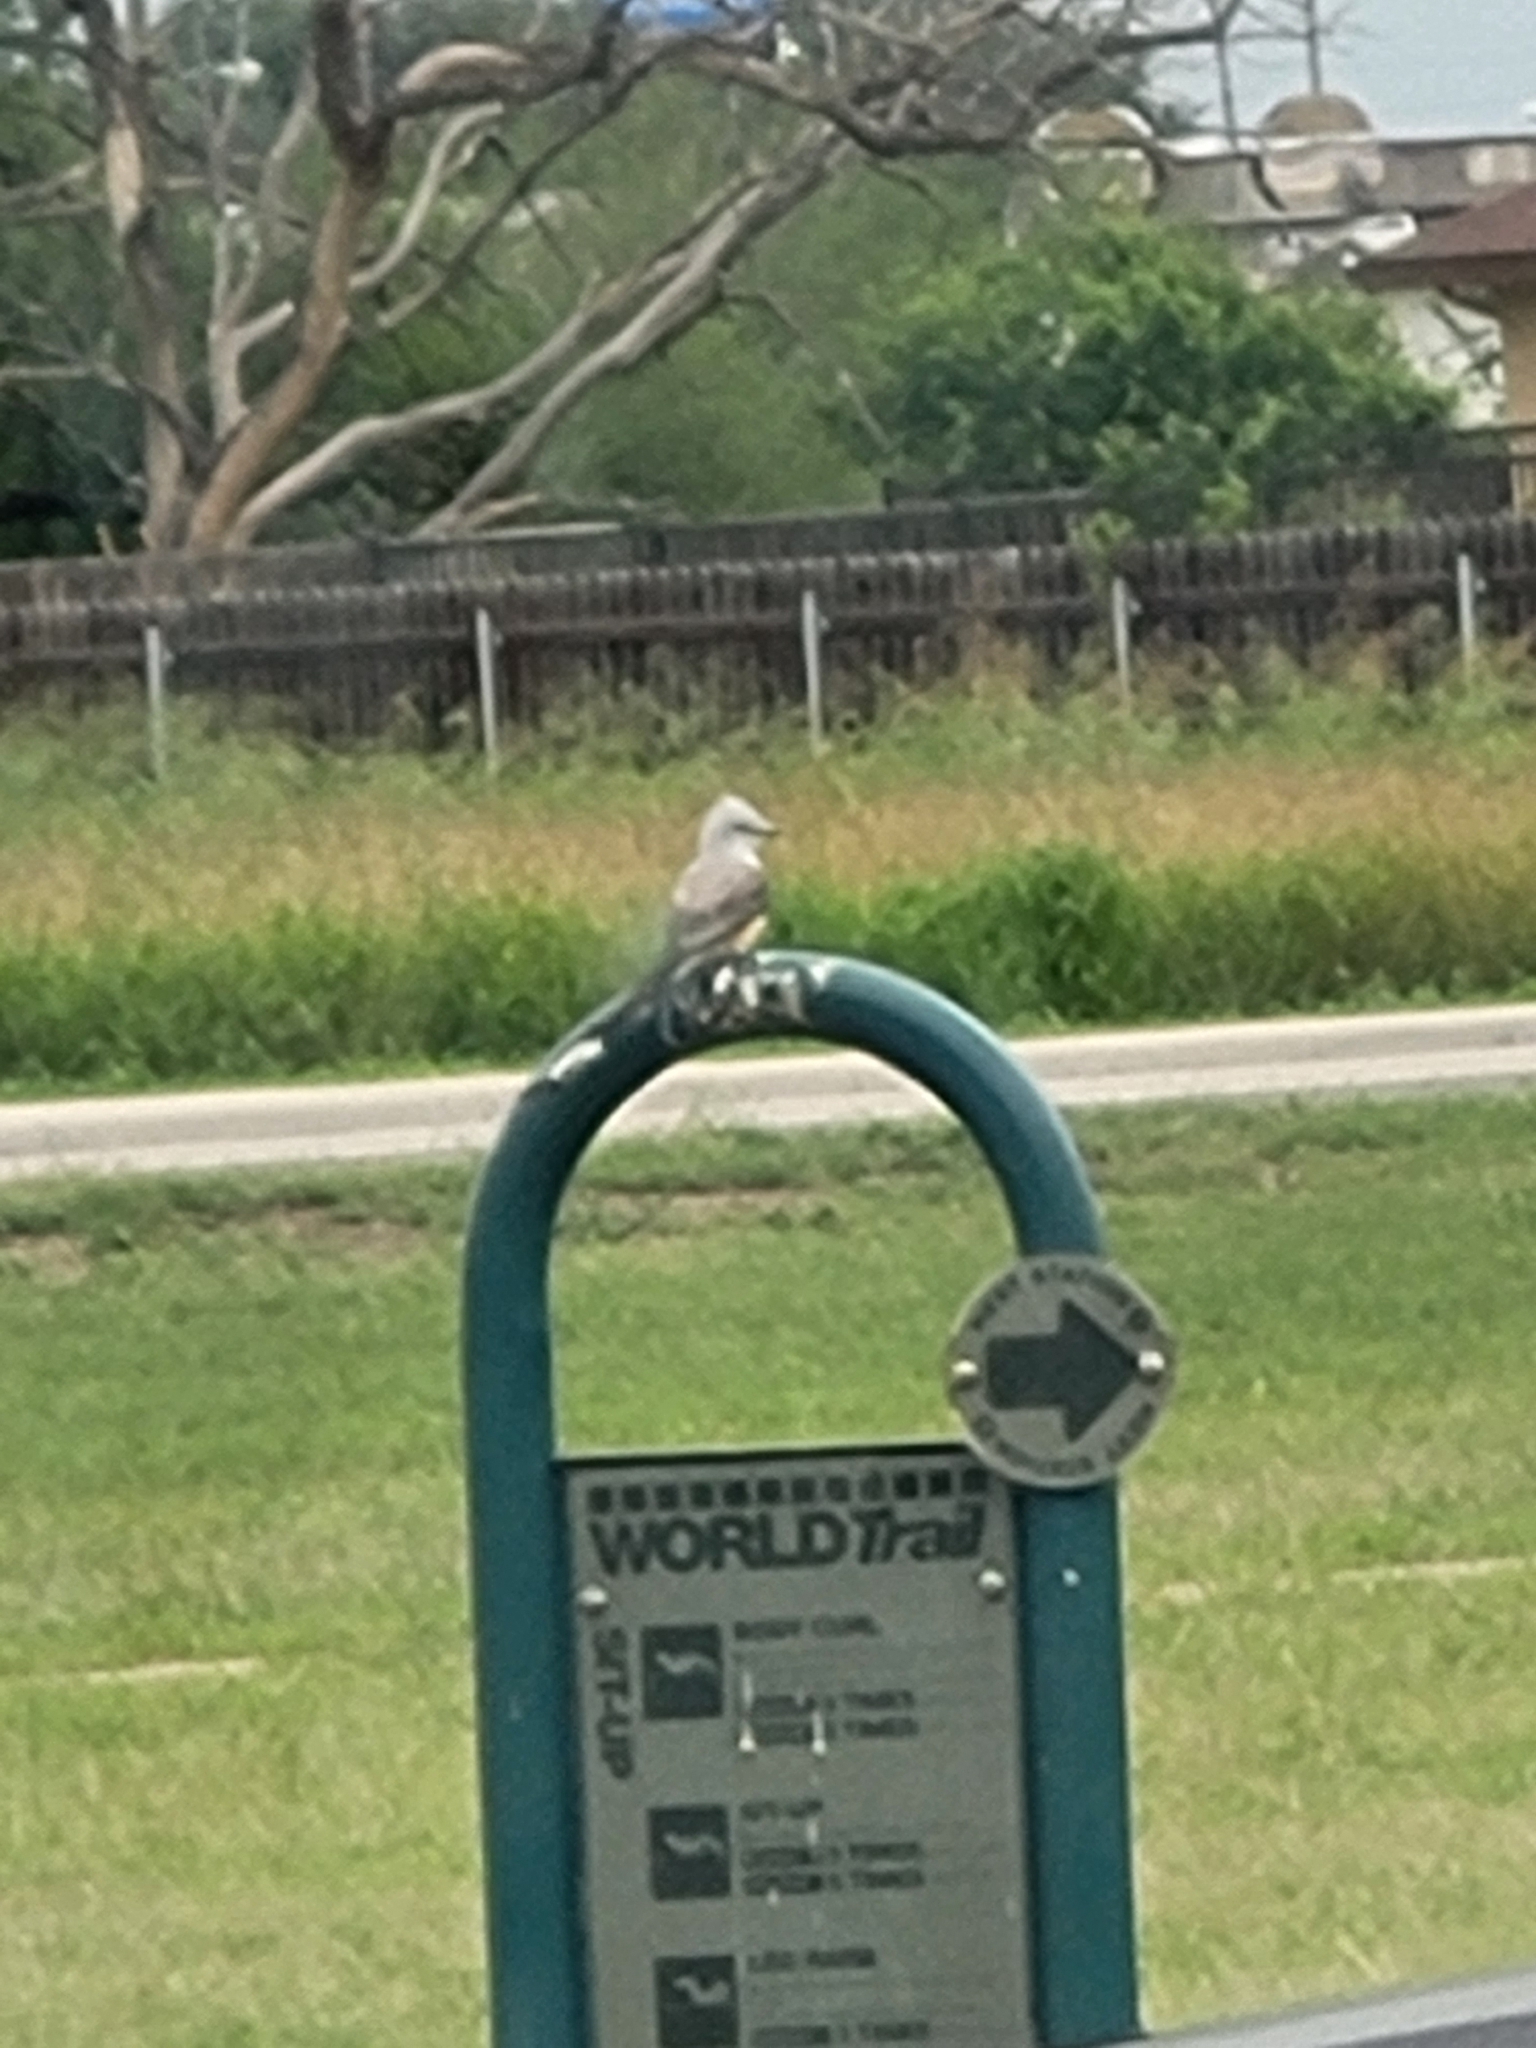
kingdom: Animalia
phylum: Chordata
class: Aves
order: Passeriformes
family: Tyrannidae
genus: Tyrannus
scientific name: Tyrannus forficatus
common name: Scissor-tailed flycatcher
